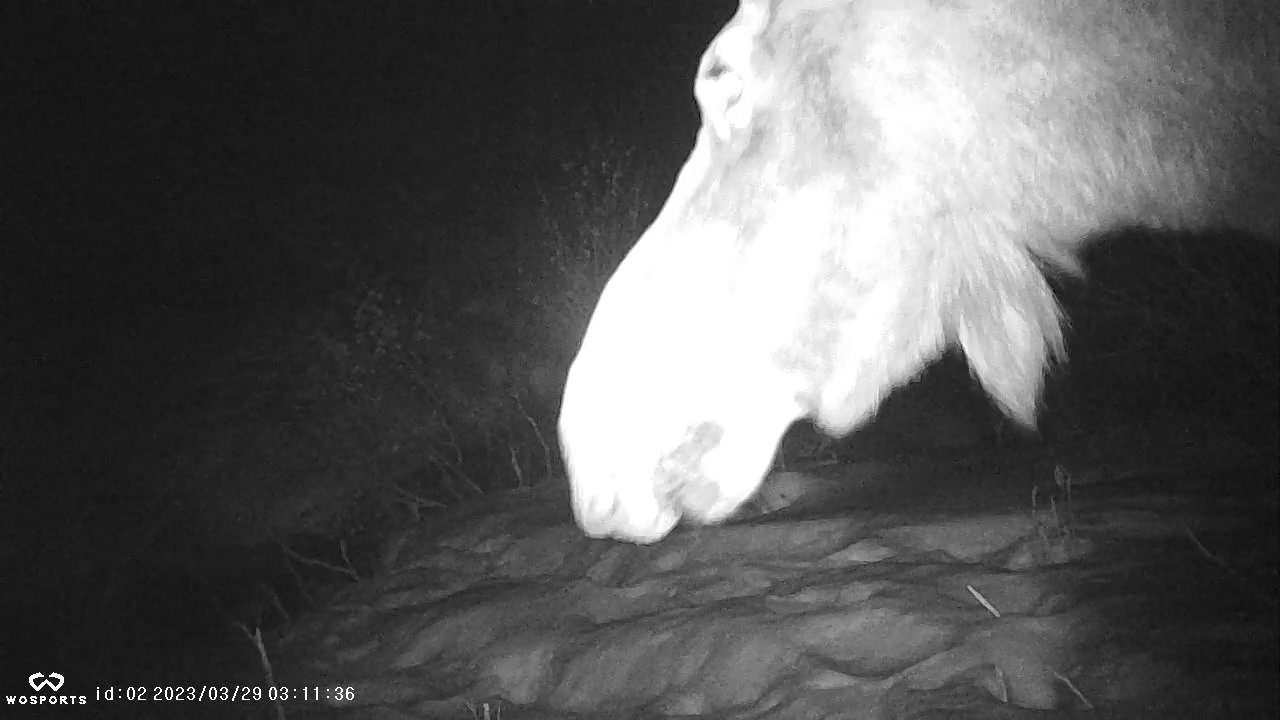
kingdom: Animalia
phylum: Chordata
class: Mammalia
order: Artiodactyla
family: Cervidae
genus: Alces
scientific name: Alces alces
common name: Moose
